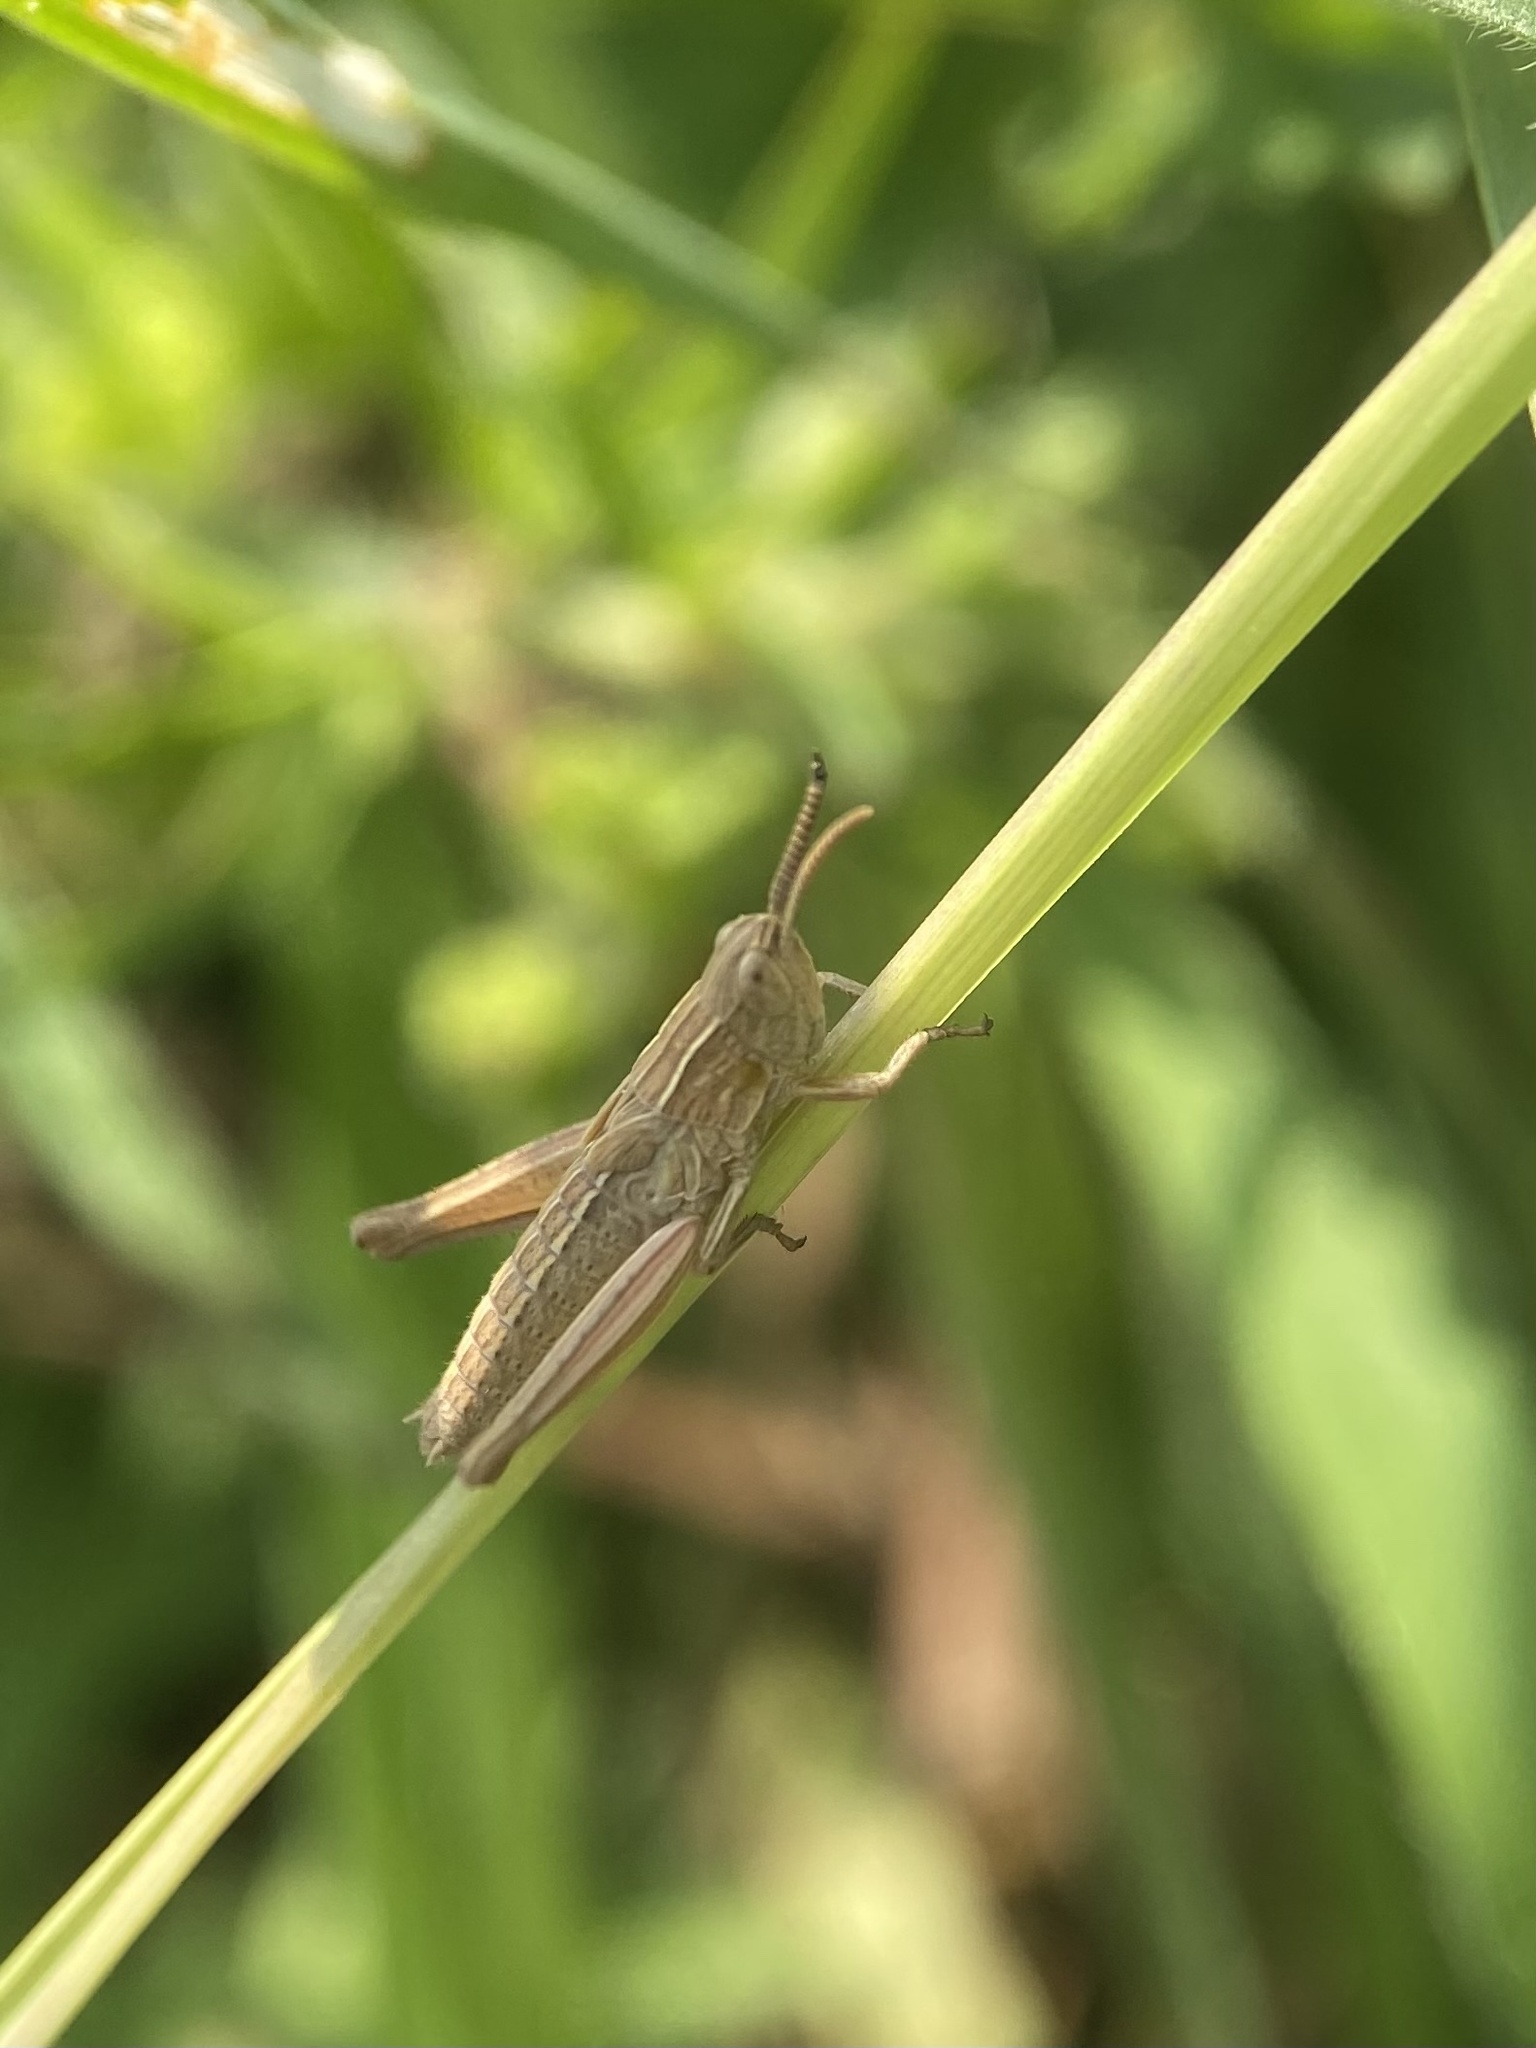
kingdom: Animalia
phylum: Arthropoda
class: Insecta
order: Orthoptera
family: Acrididae
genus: Chorthippus
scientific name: Chorthippus albomarginatus
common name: Lesser marsh grasshopper
